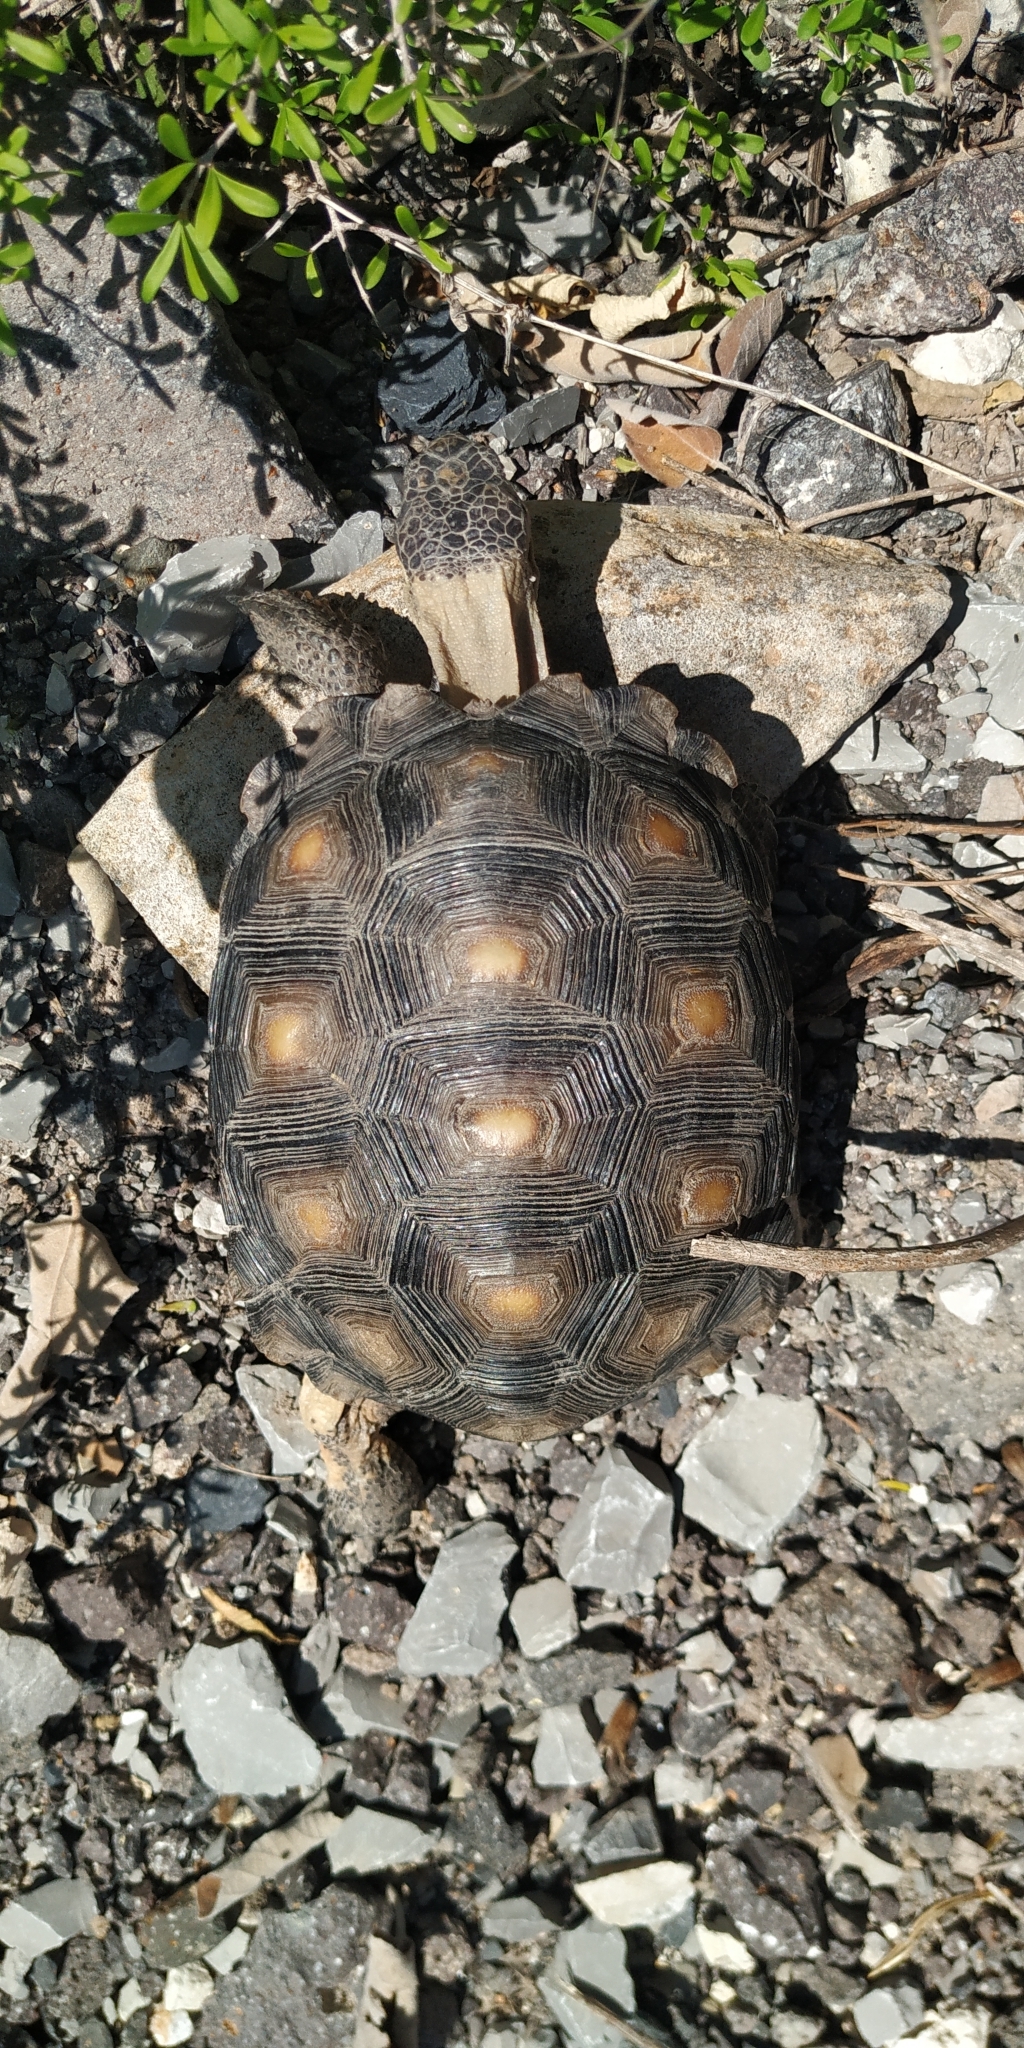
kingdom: Animalia
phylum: Chordata
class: Testudines
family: Testudinidae
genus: Gopherus
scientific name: Gopherus berlandieri
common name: Texas (gopher )tortoise
